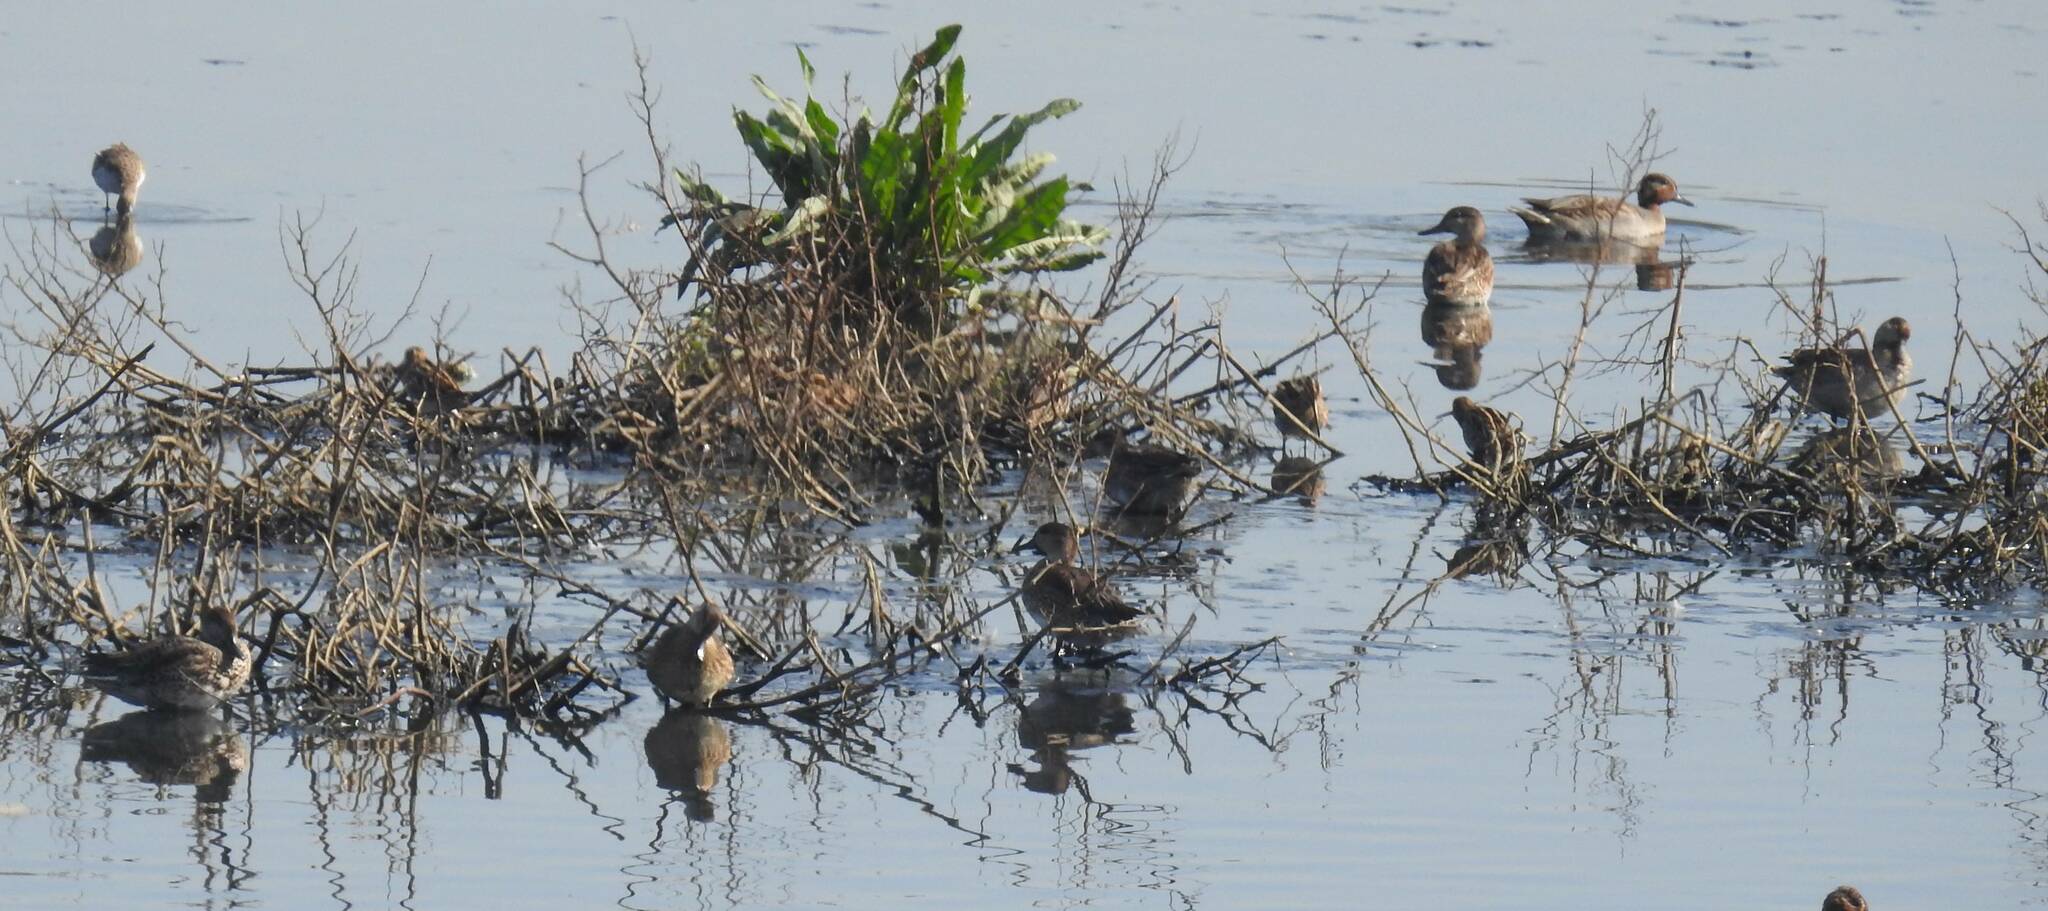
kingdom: Animalia
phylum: Chordata
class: Aves
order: Anseriformes
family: Anatidae
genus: Anas
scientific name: Anas crecca
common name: Eurasian teal
